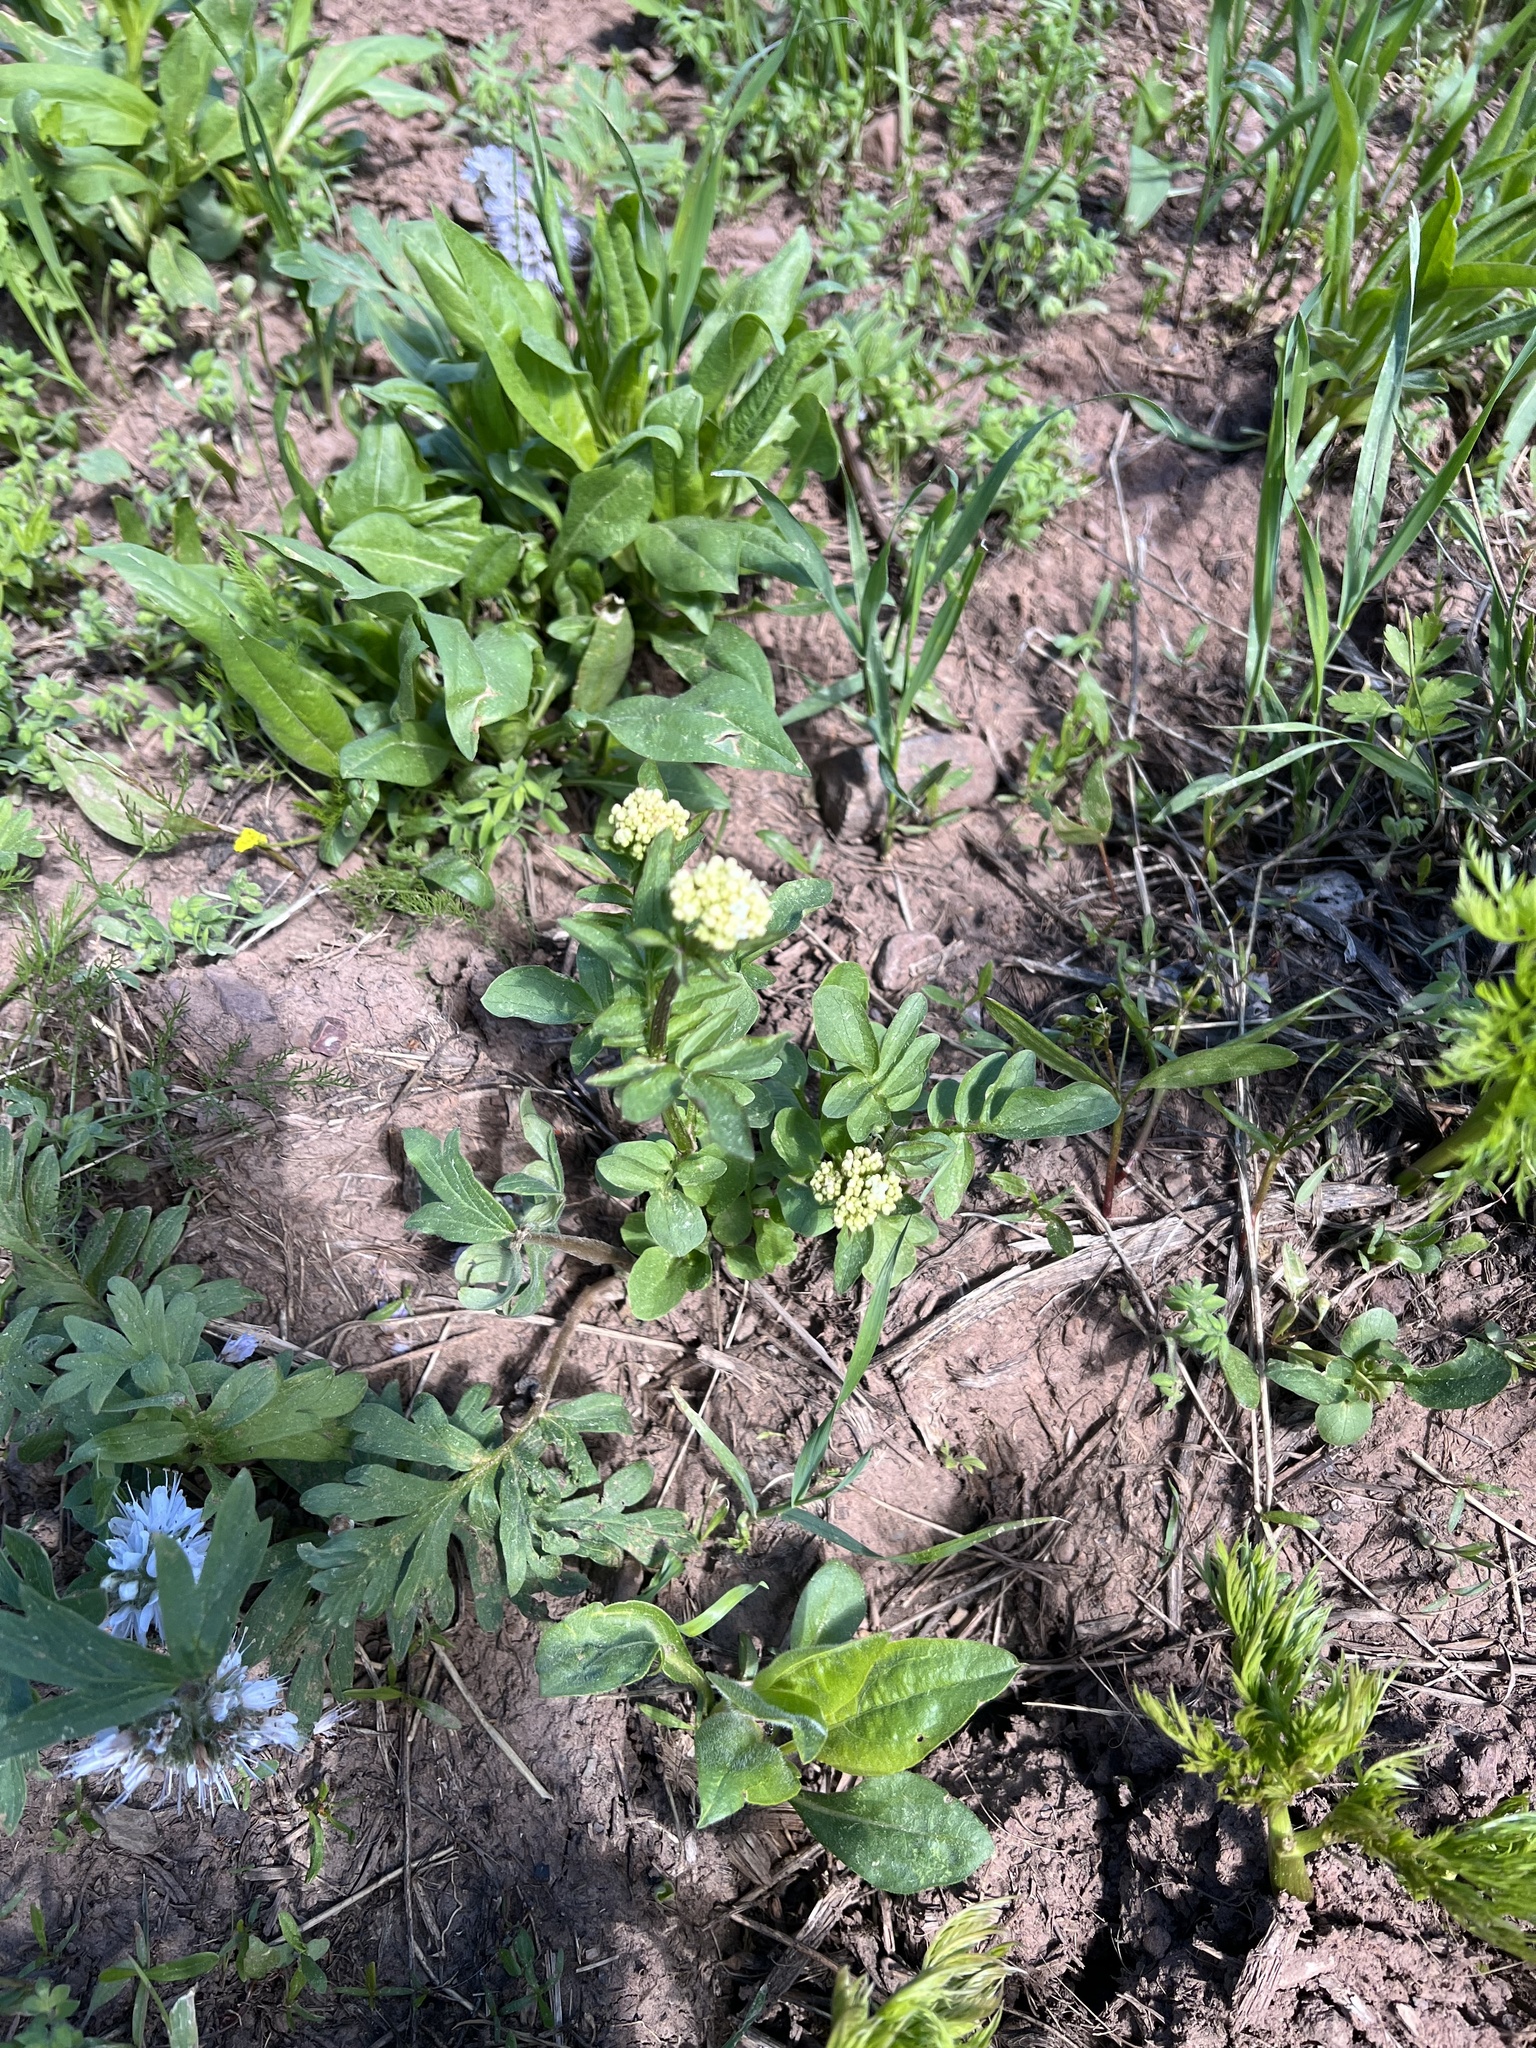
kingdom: Plantae
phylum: Tracheophyta
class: Magnoliopsida
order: Dipsacales
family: Caprifoliaceae
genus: Valeriana
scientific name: Valeriana occidentalis
